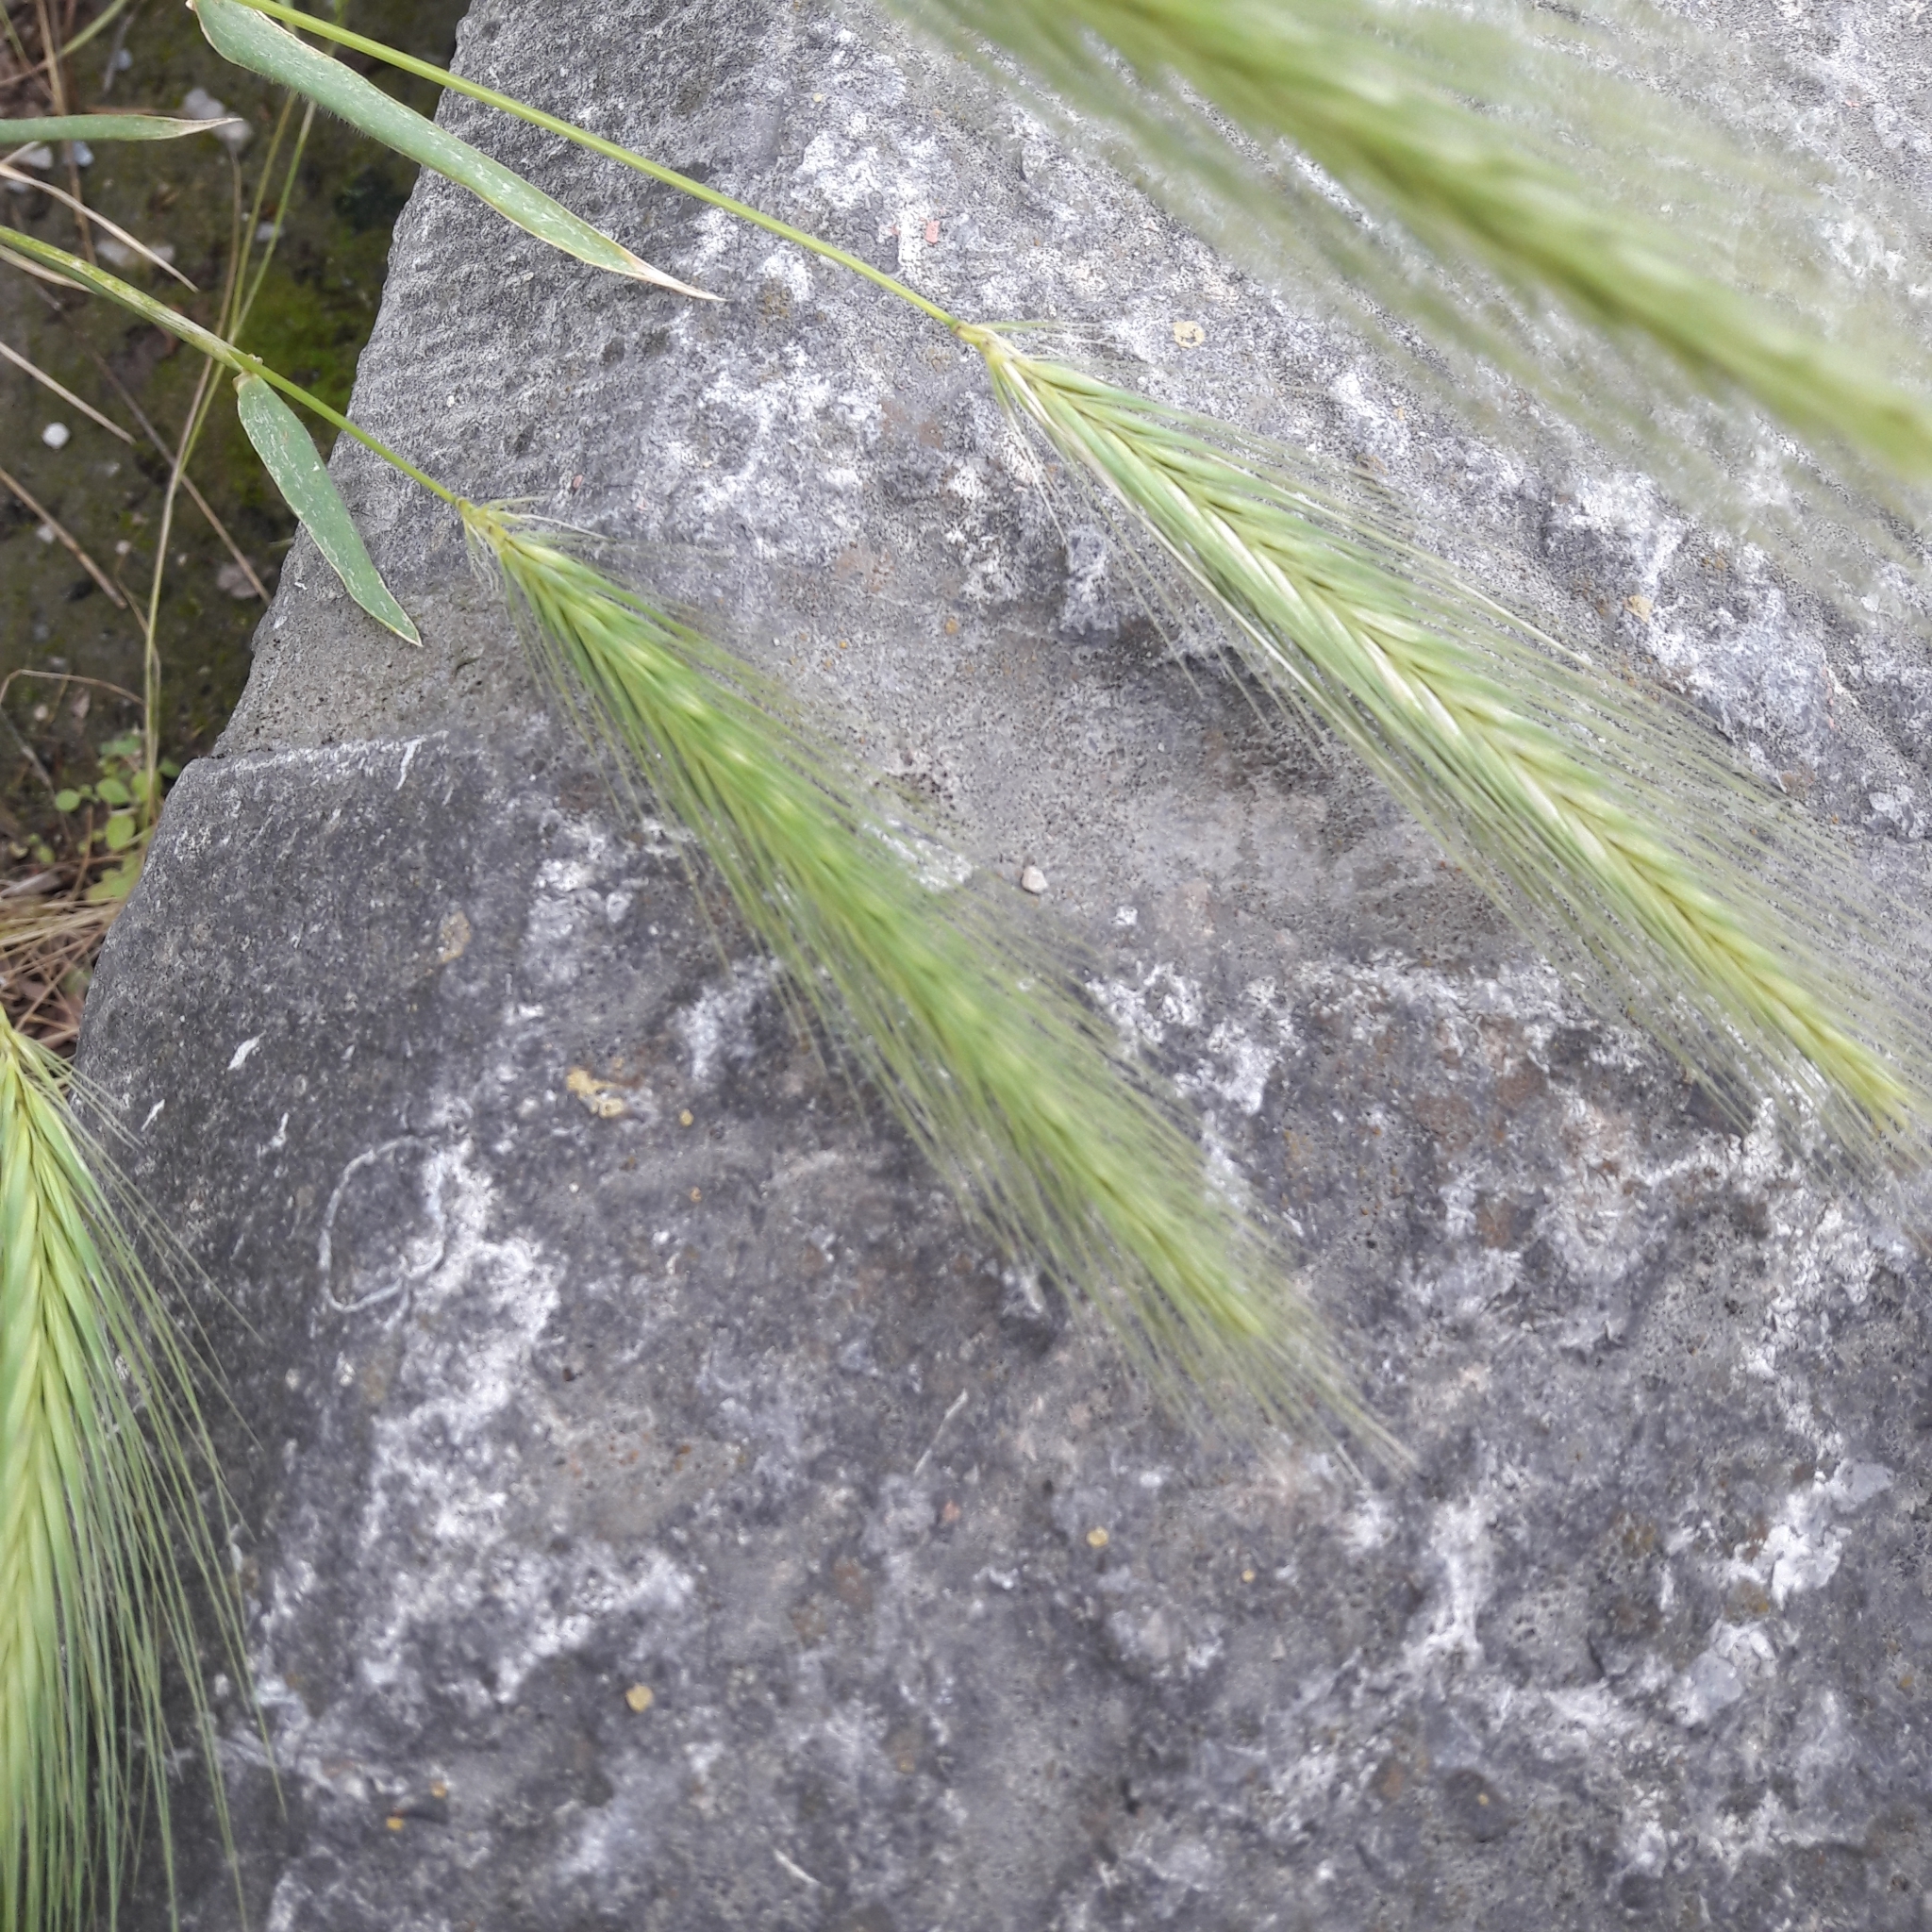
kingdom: Plantae
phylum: Tracheophyta
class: Liliopsida
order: Poales
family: Poaceae
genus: Hordeum
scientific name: Hordeum murinum
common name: Wall barley
